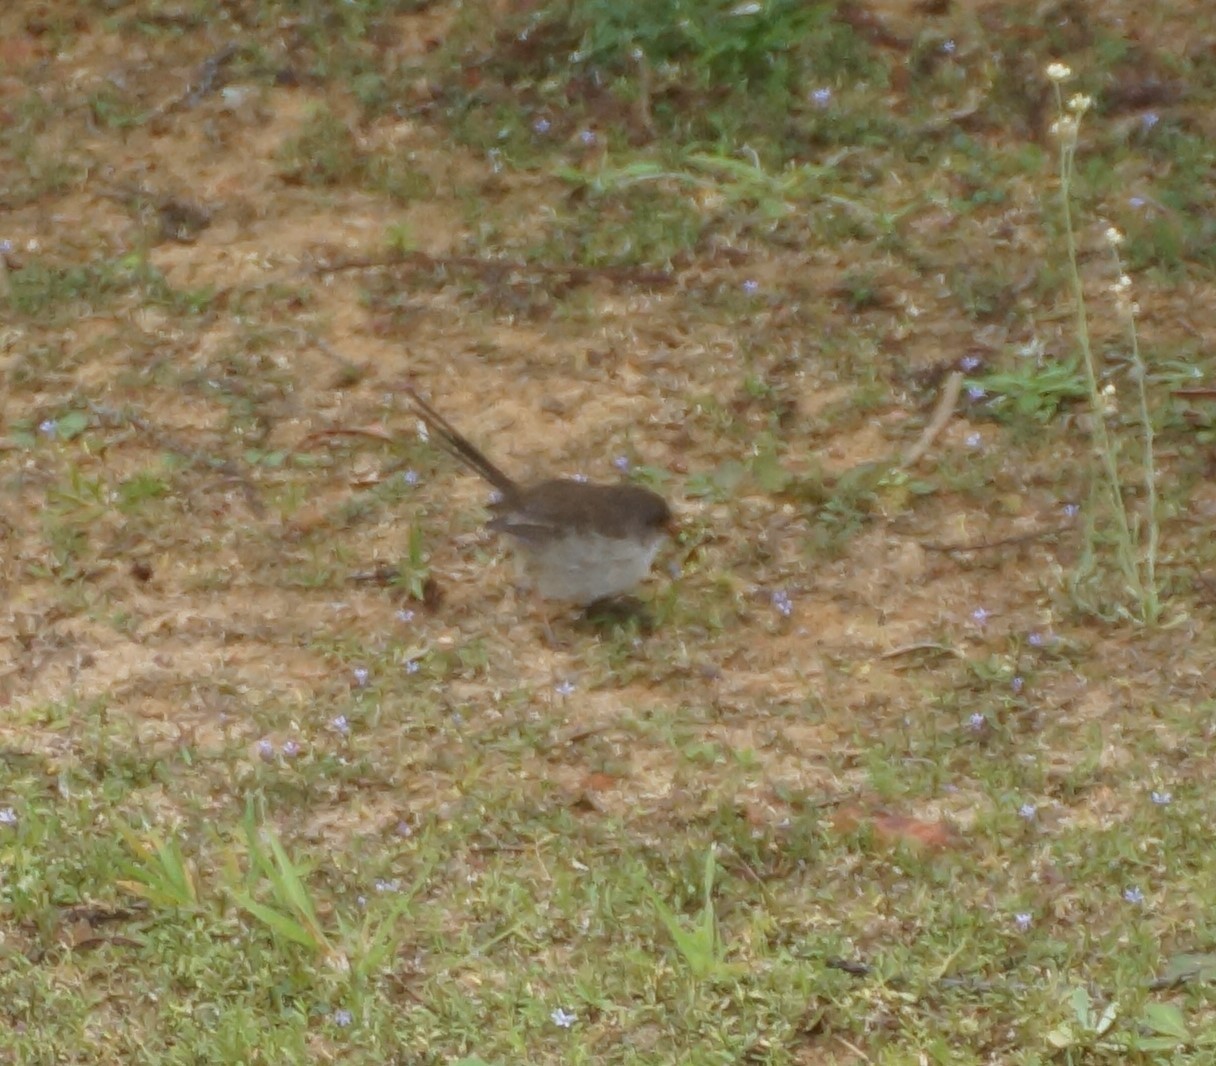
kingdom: Animalia
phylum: Chordata
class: Aves
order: Passeriformes
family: Maluridae
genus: Malurus
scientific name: Malurus cyaneus
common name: Superb fairywren
